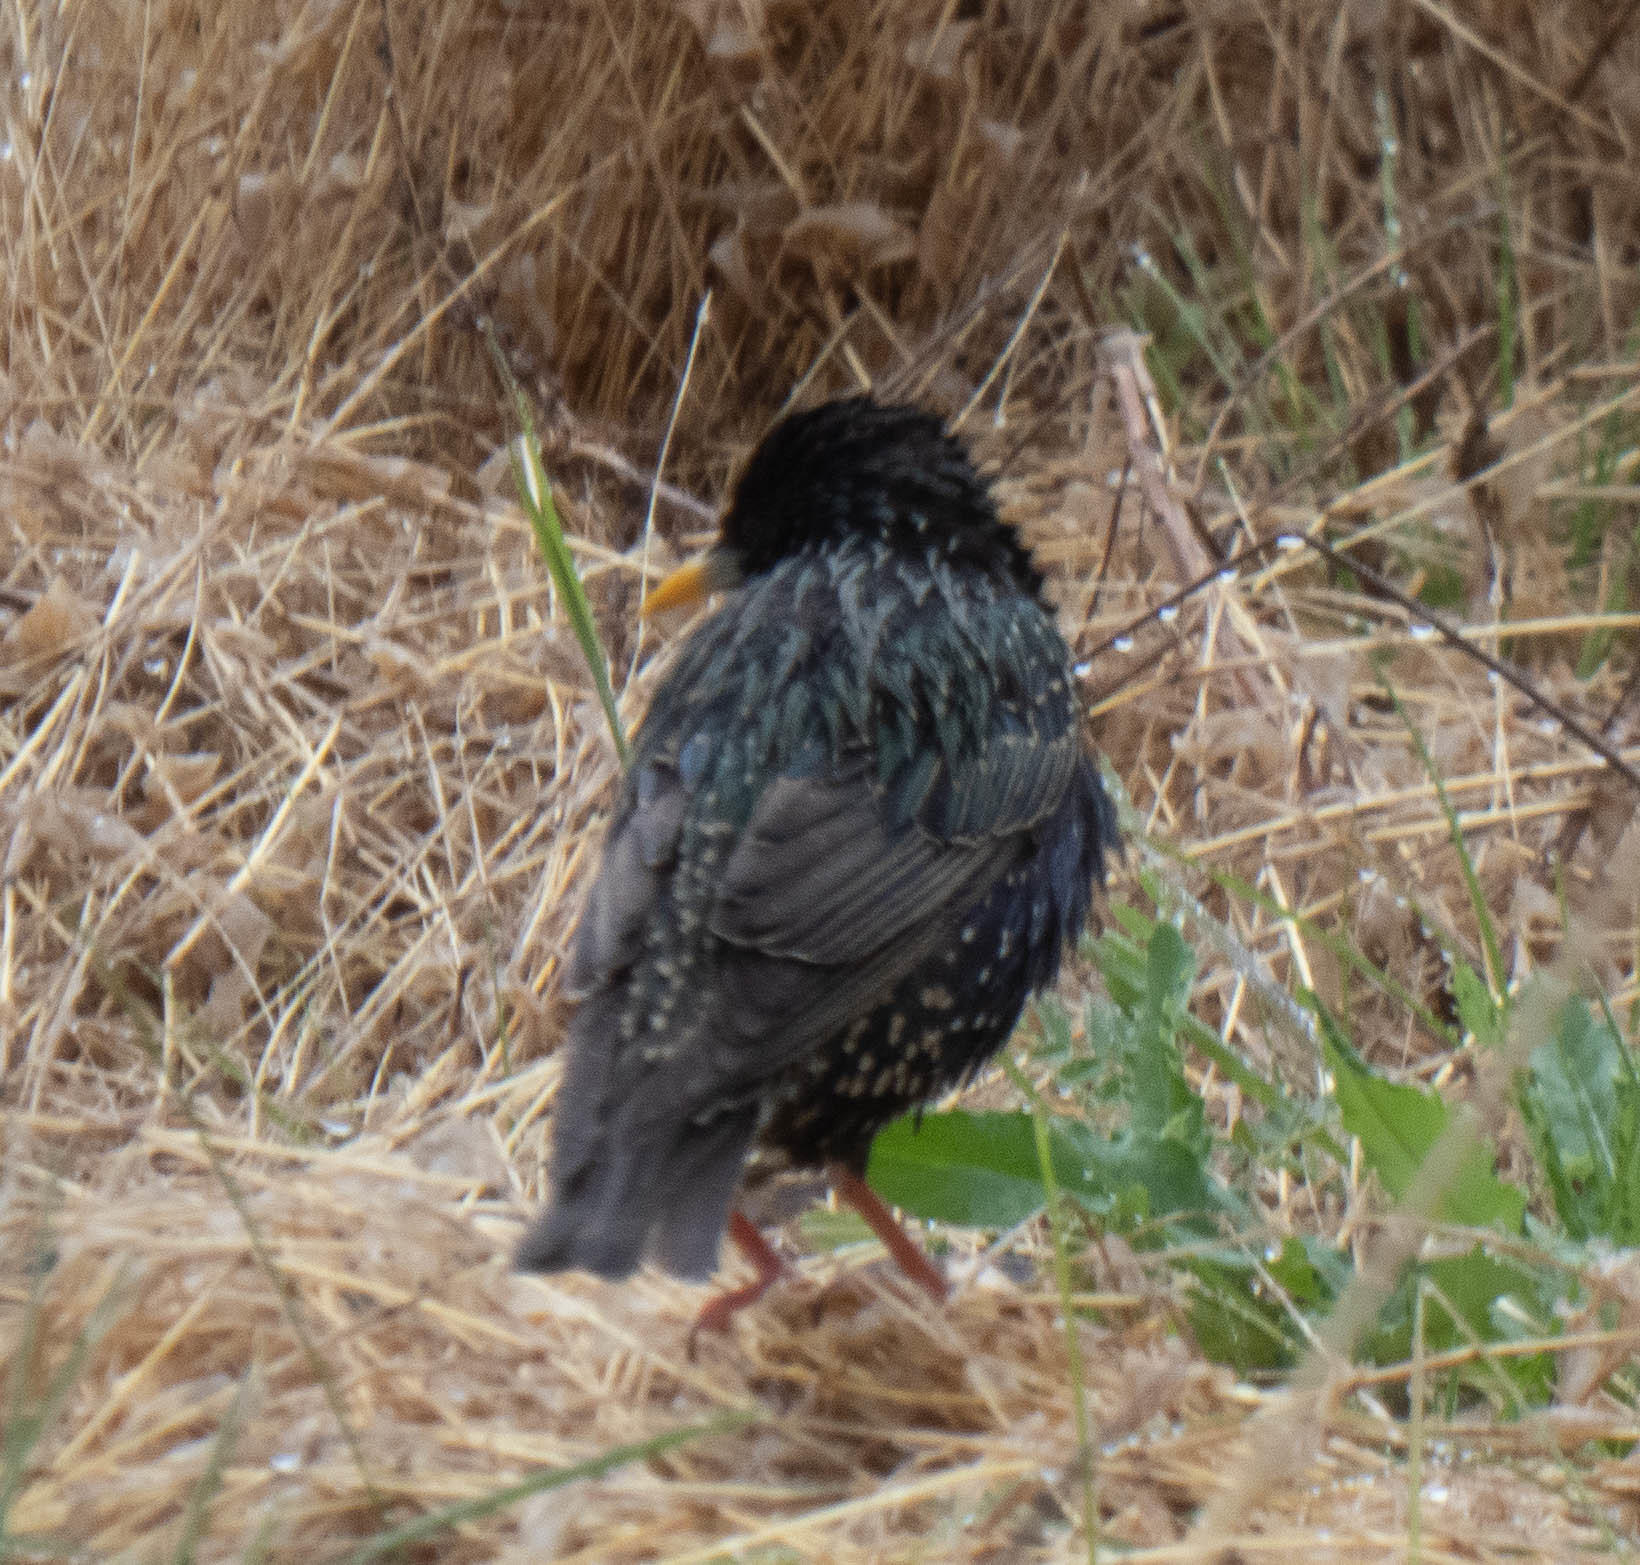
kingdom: Animalia
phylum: Chordata
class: Aves
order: Passeriformes
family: Sturnidae
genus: Sturnus
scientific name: Sturnus vulgaris
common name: Common starling
